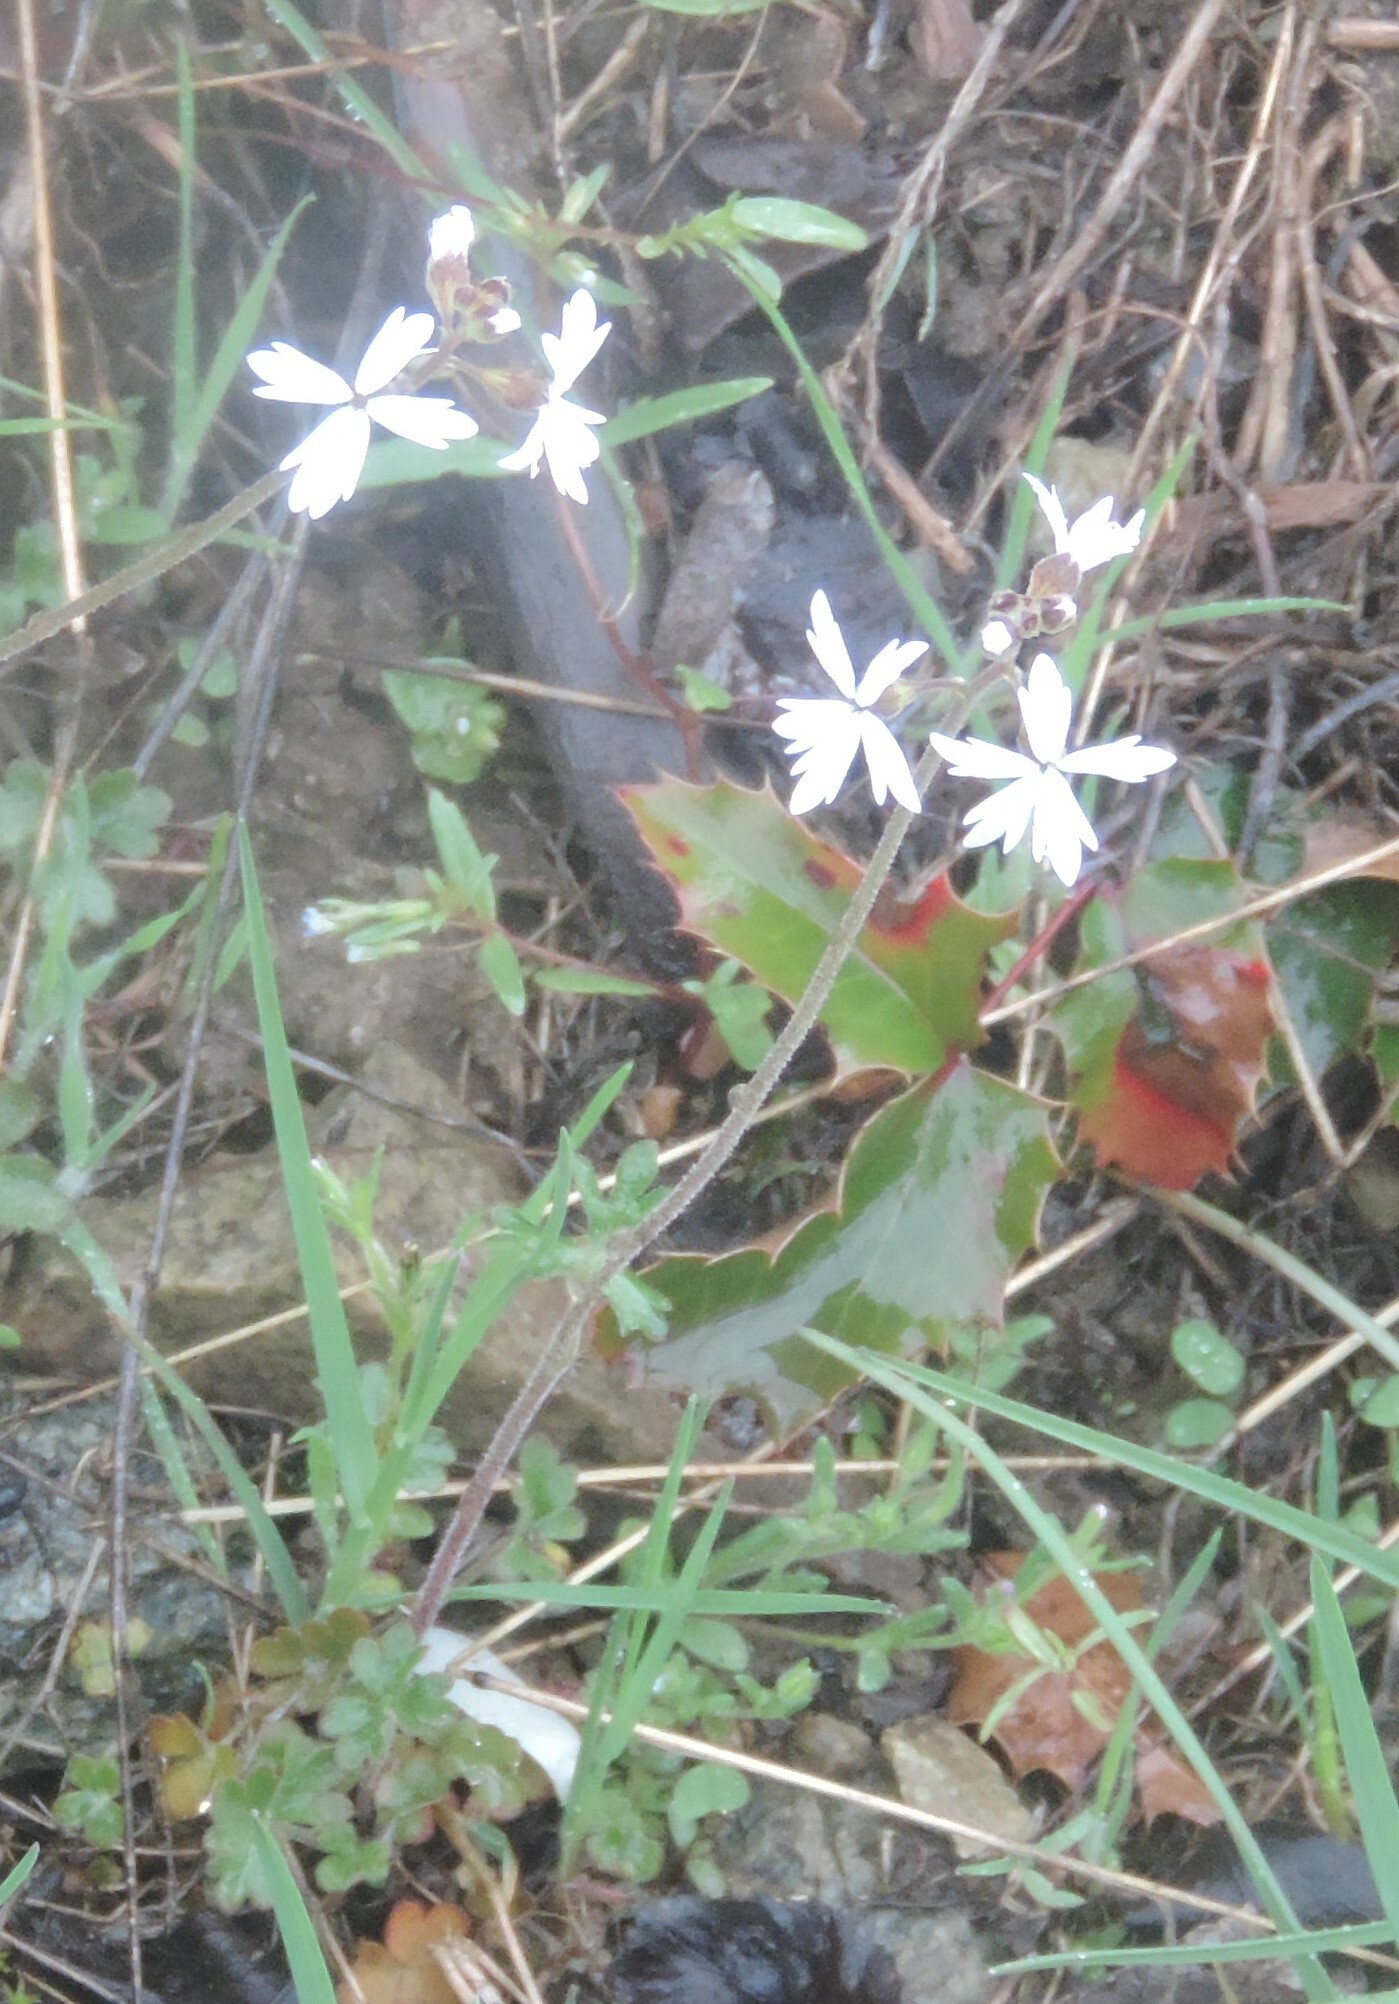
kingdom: Plantae
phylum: Tracheophyta
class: Magnoliopsida
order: Saxifragales
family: Saxifragaceae
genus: Lithophragma
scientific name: Lithophragma parviflorum
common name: Small-flowered fringe-cup
